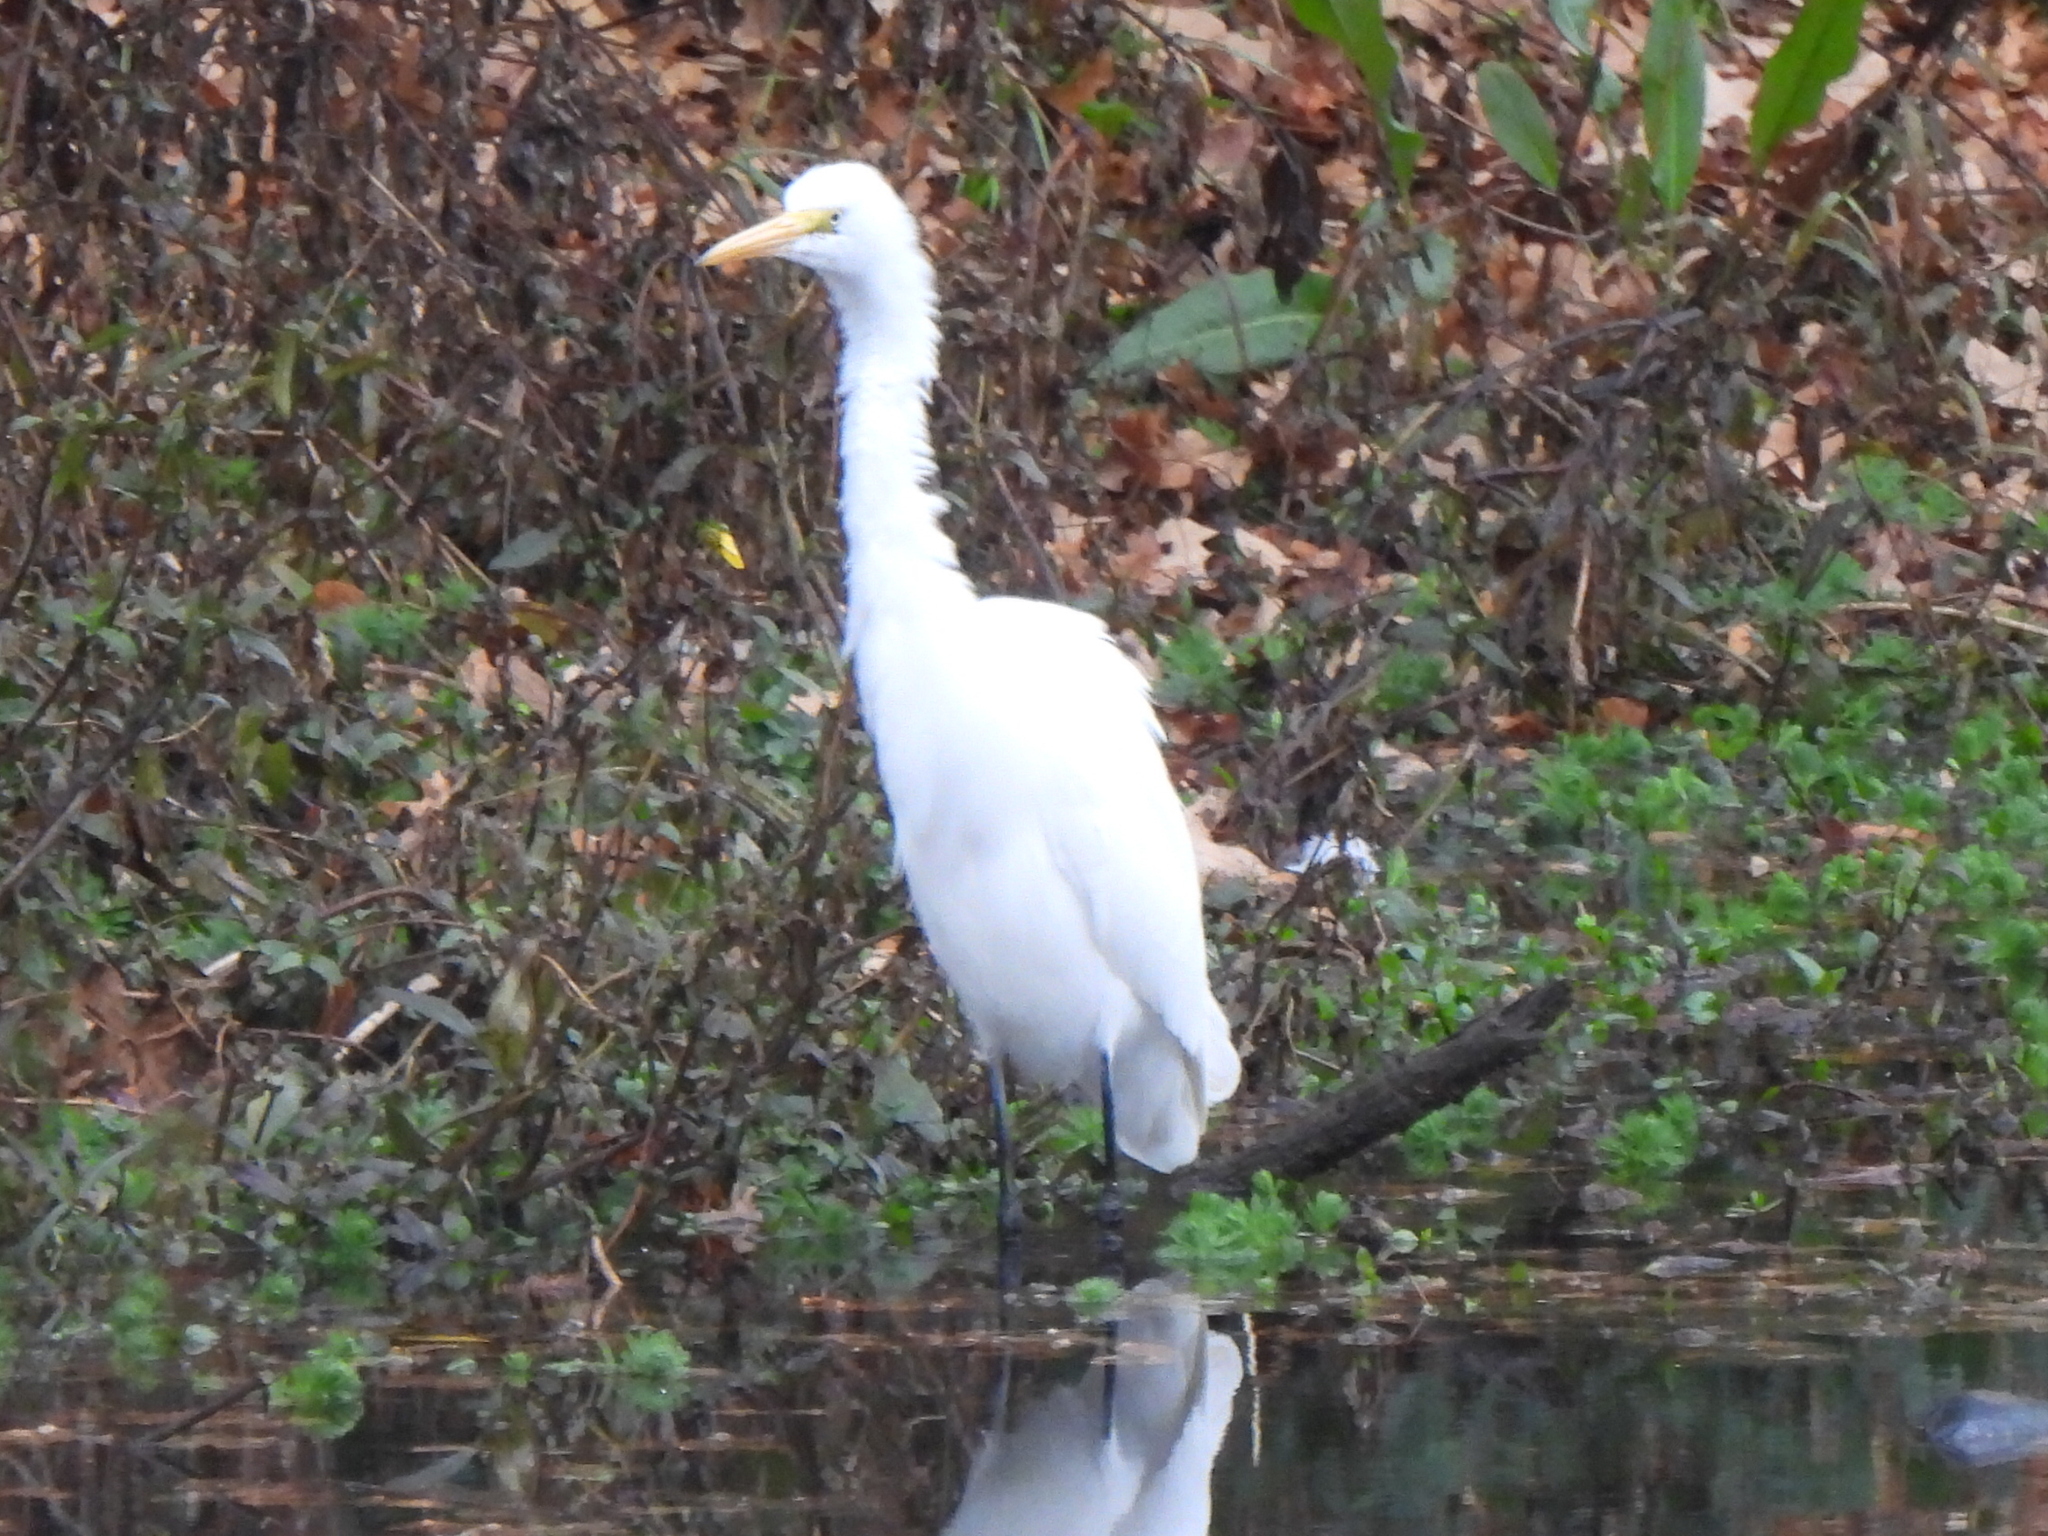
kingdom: Animalia
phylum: Chordata
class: Aves
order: Pelecaniformes
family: Ardeidae
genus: Ardea
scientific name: Ardea alba
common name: Great egret
